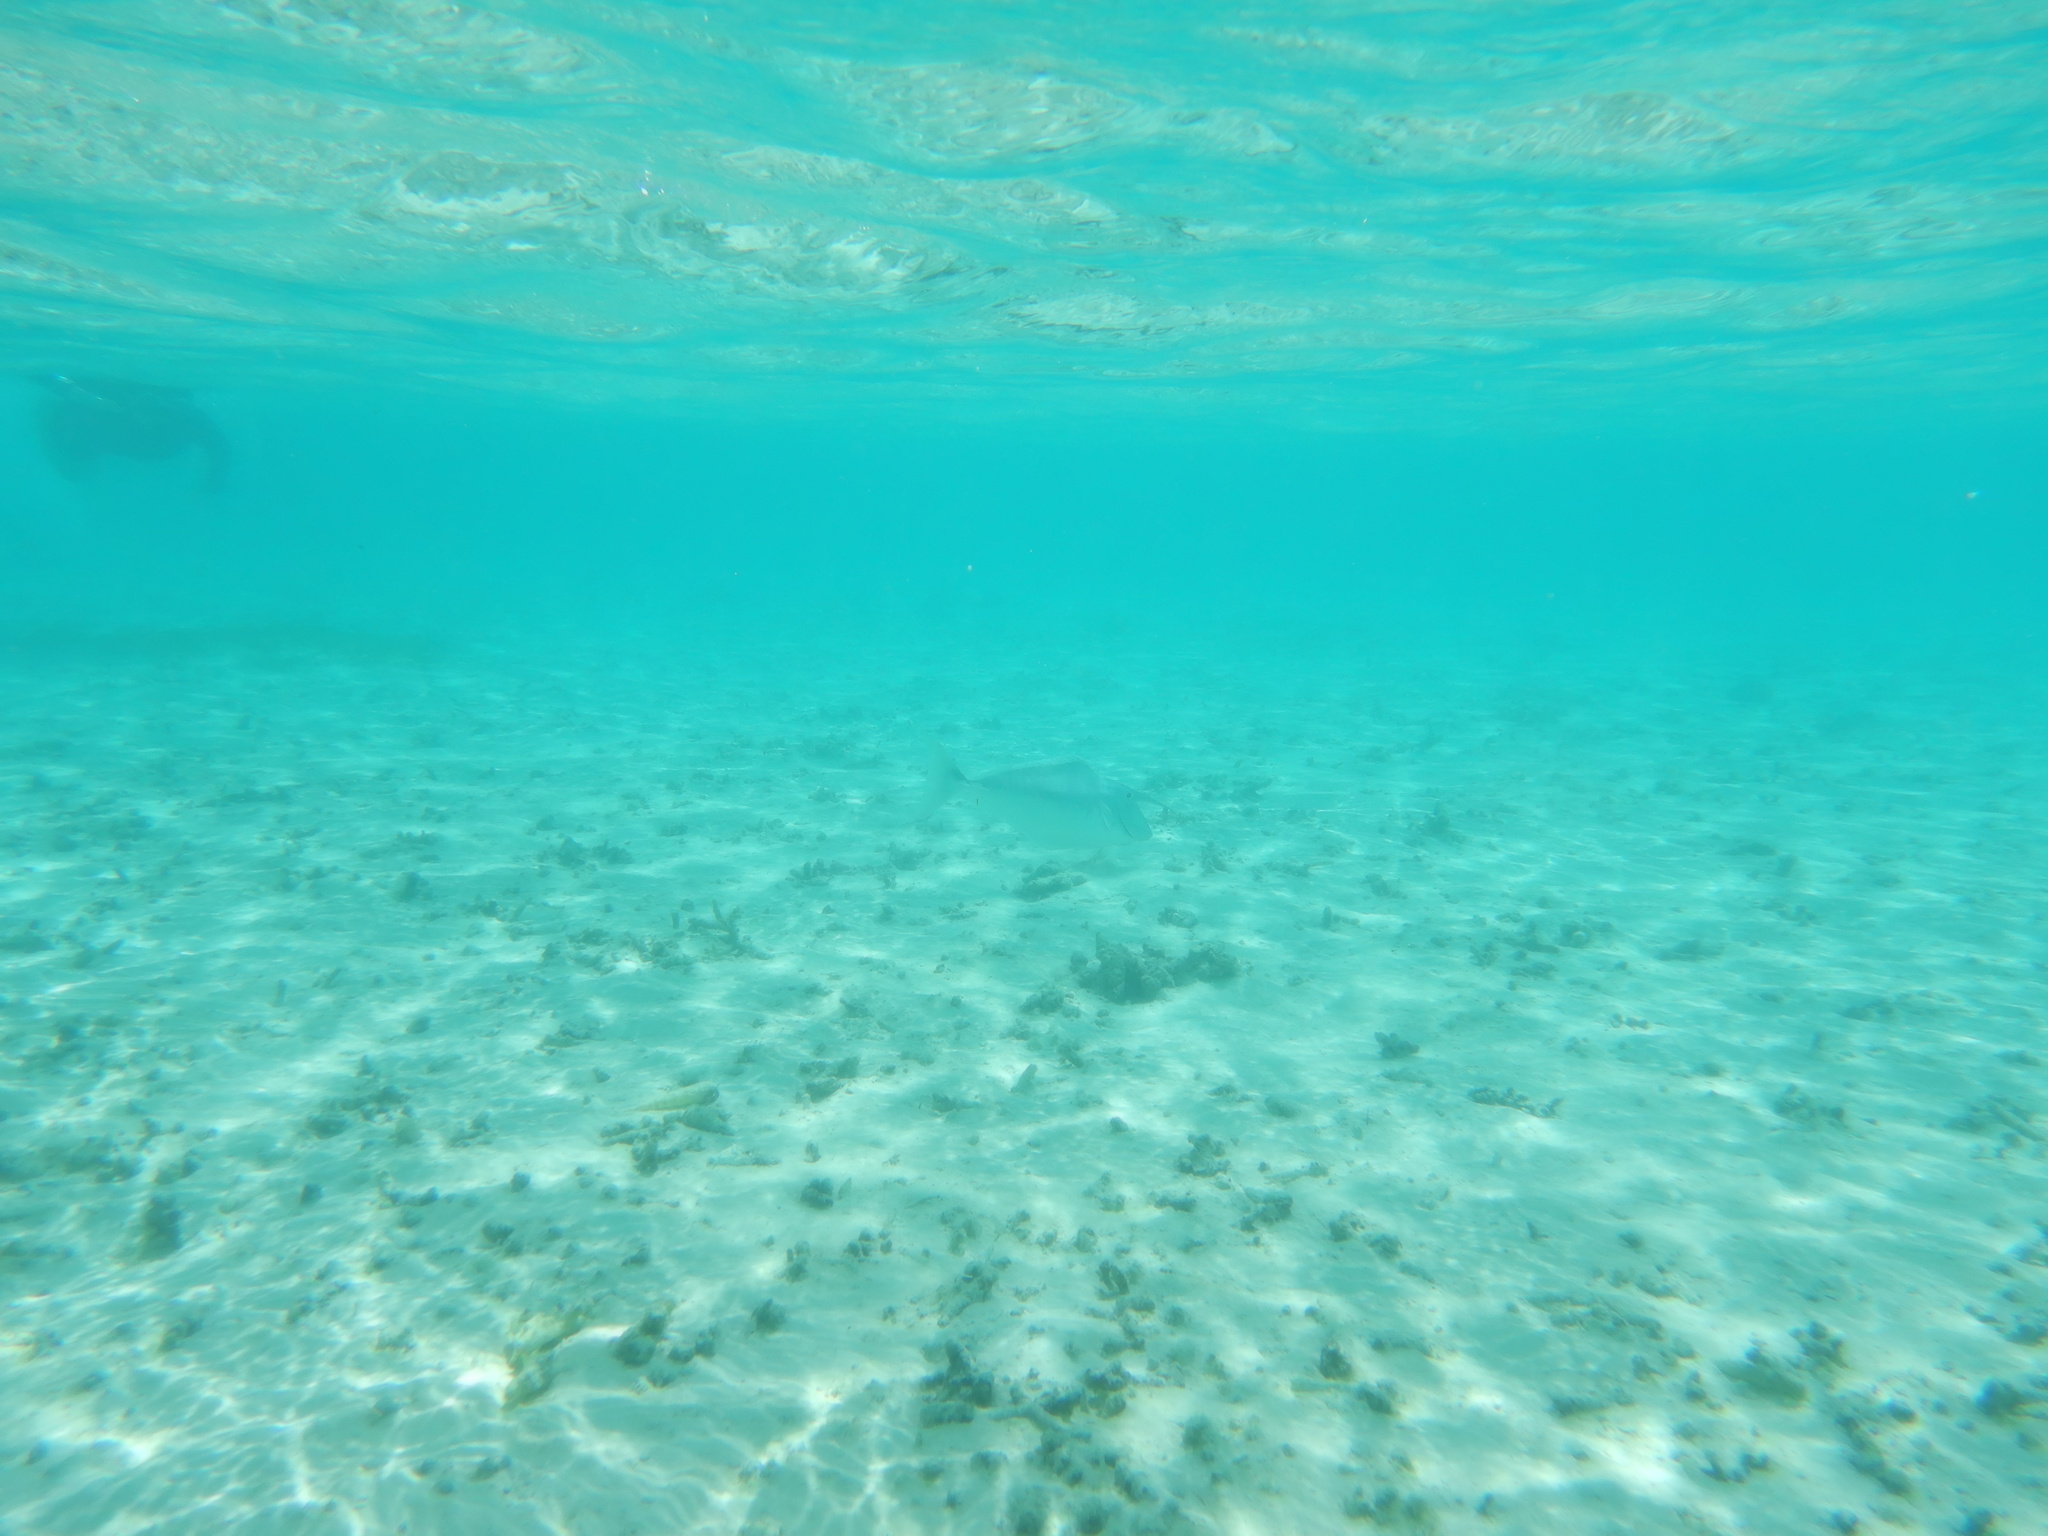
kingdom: Animalia
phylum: Chordata
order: Perciformes
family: Acanthuridae
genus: Naso
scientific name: Naso brachycentron
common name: Humpback unicornfish
